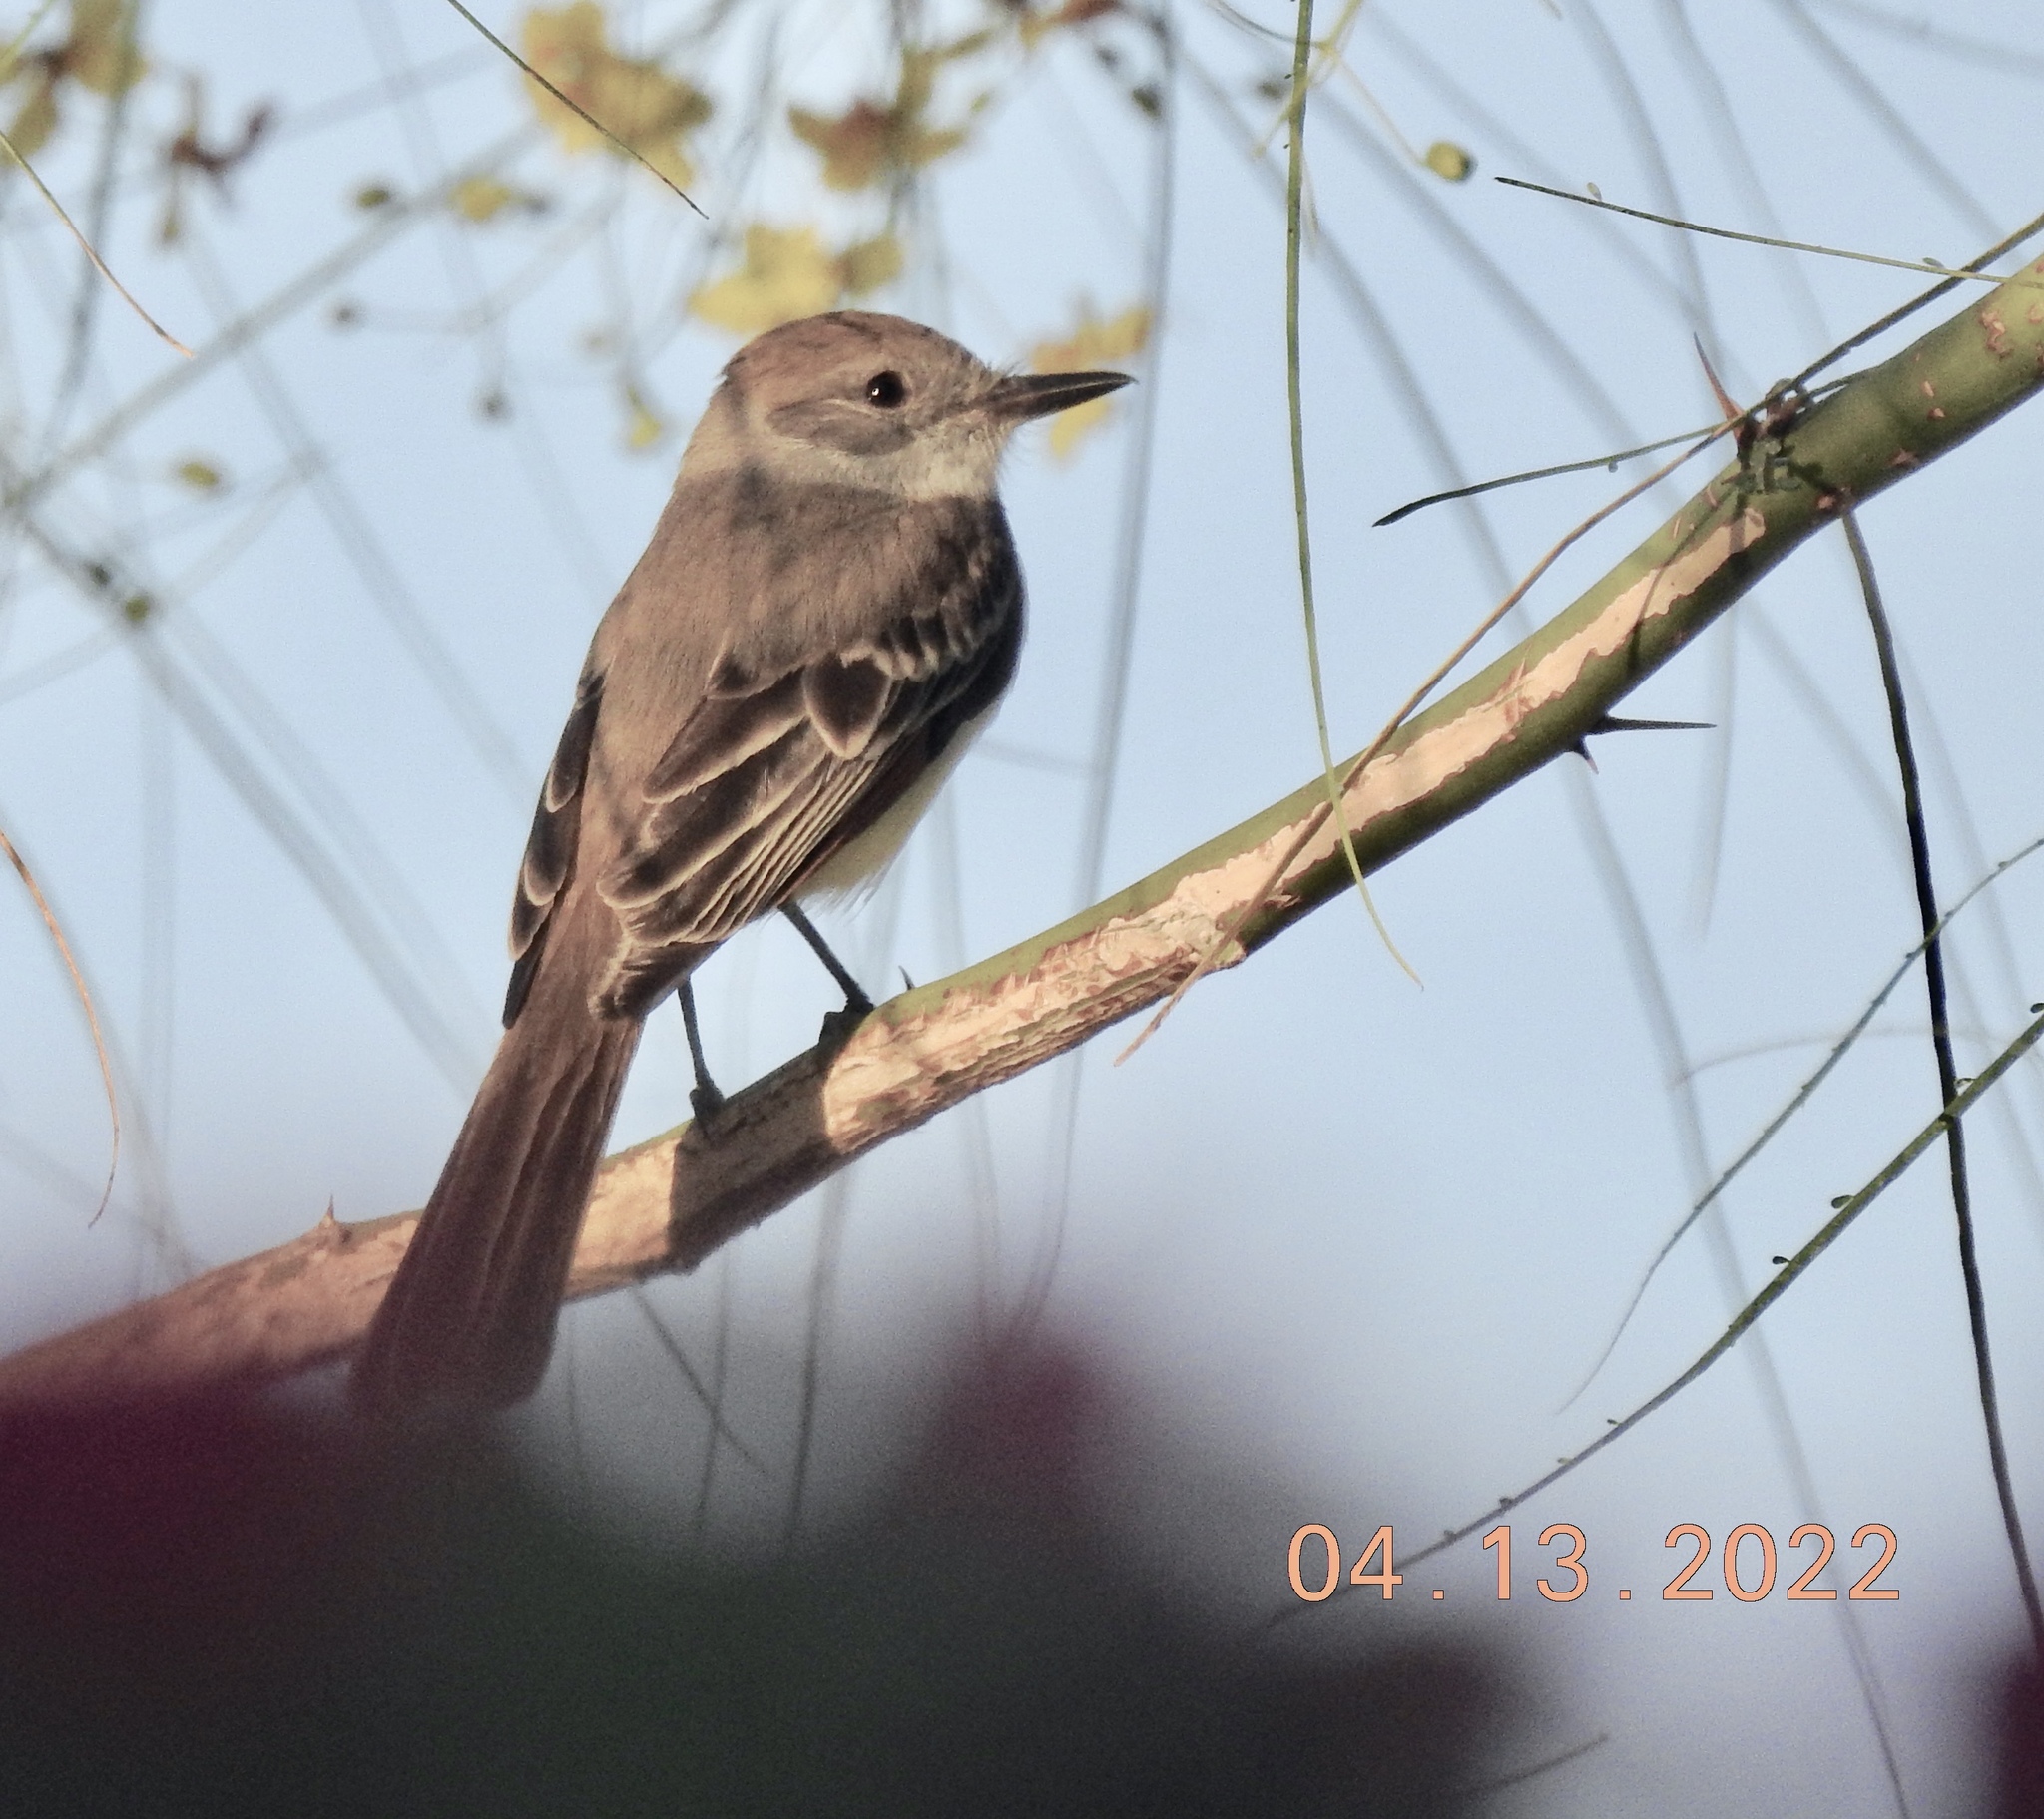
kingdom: Animalia
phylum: Chordata
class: Aves
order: Passeriformes
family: Tyrannidae
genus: Myiarchus
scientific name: Myiarchus cinerascens
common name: Ash-throated flycatcher
